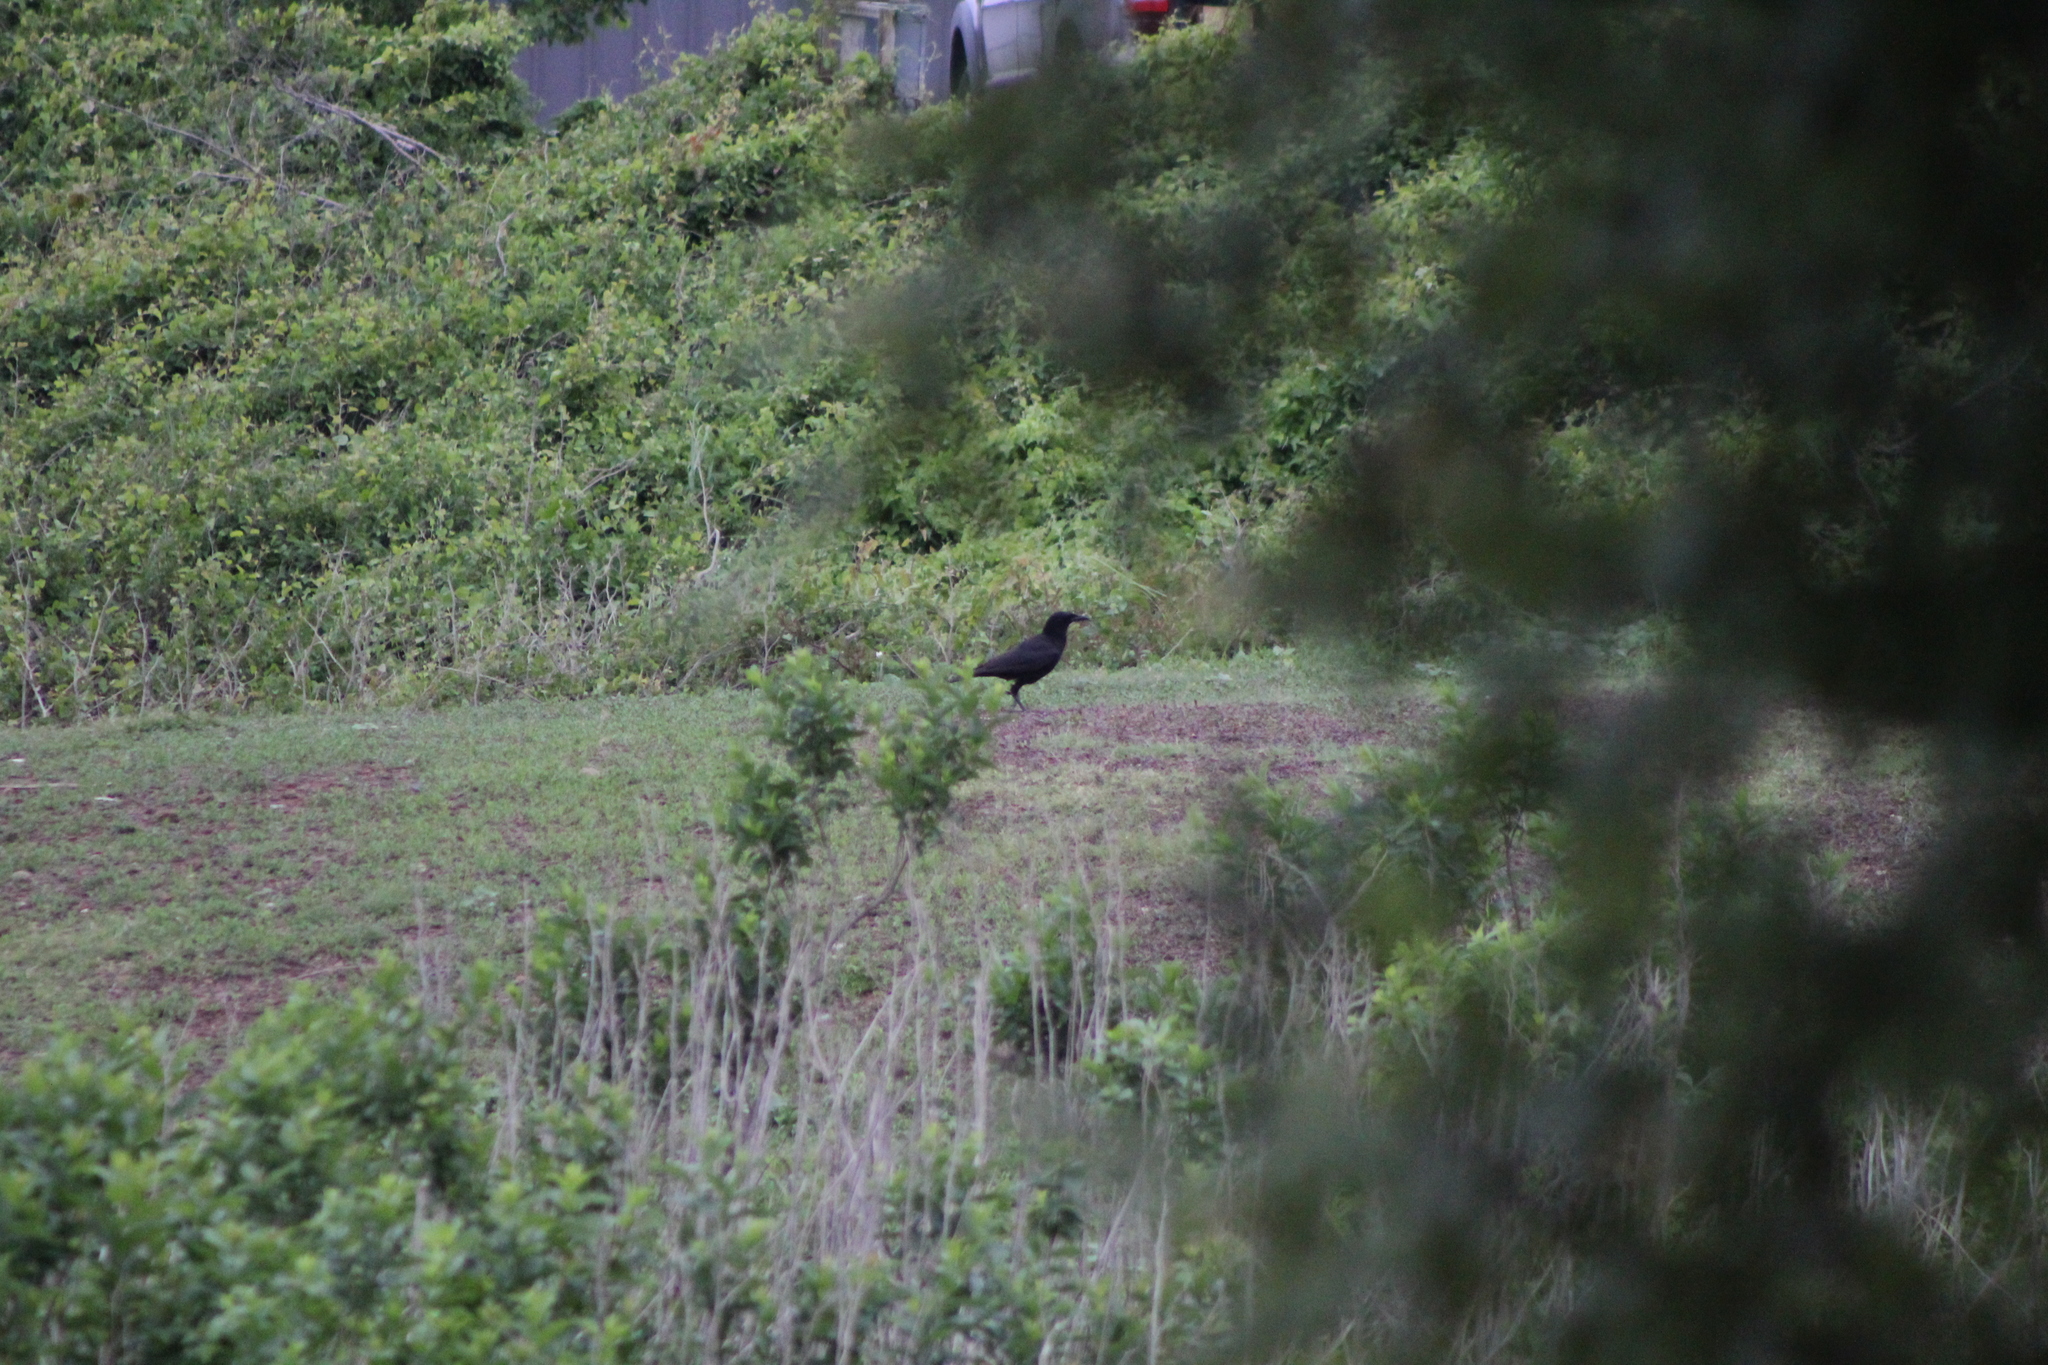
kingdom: Animalia
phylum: Chordata
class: Aves
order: Passeriformes
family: Corvidae
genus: Corvus
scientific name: Corvus brachyrhynchos
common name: American crow
